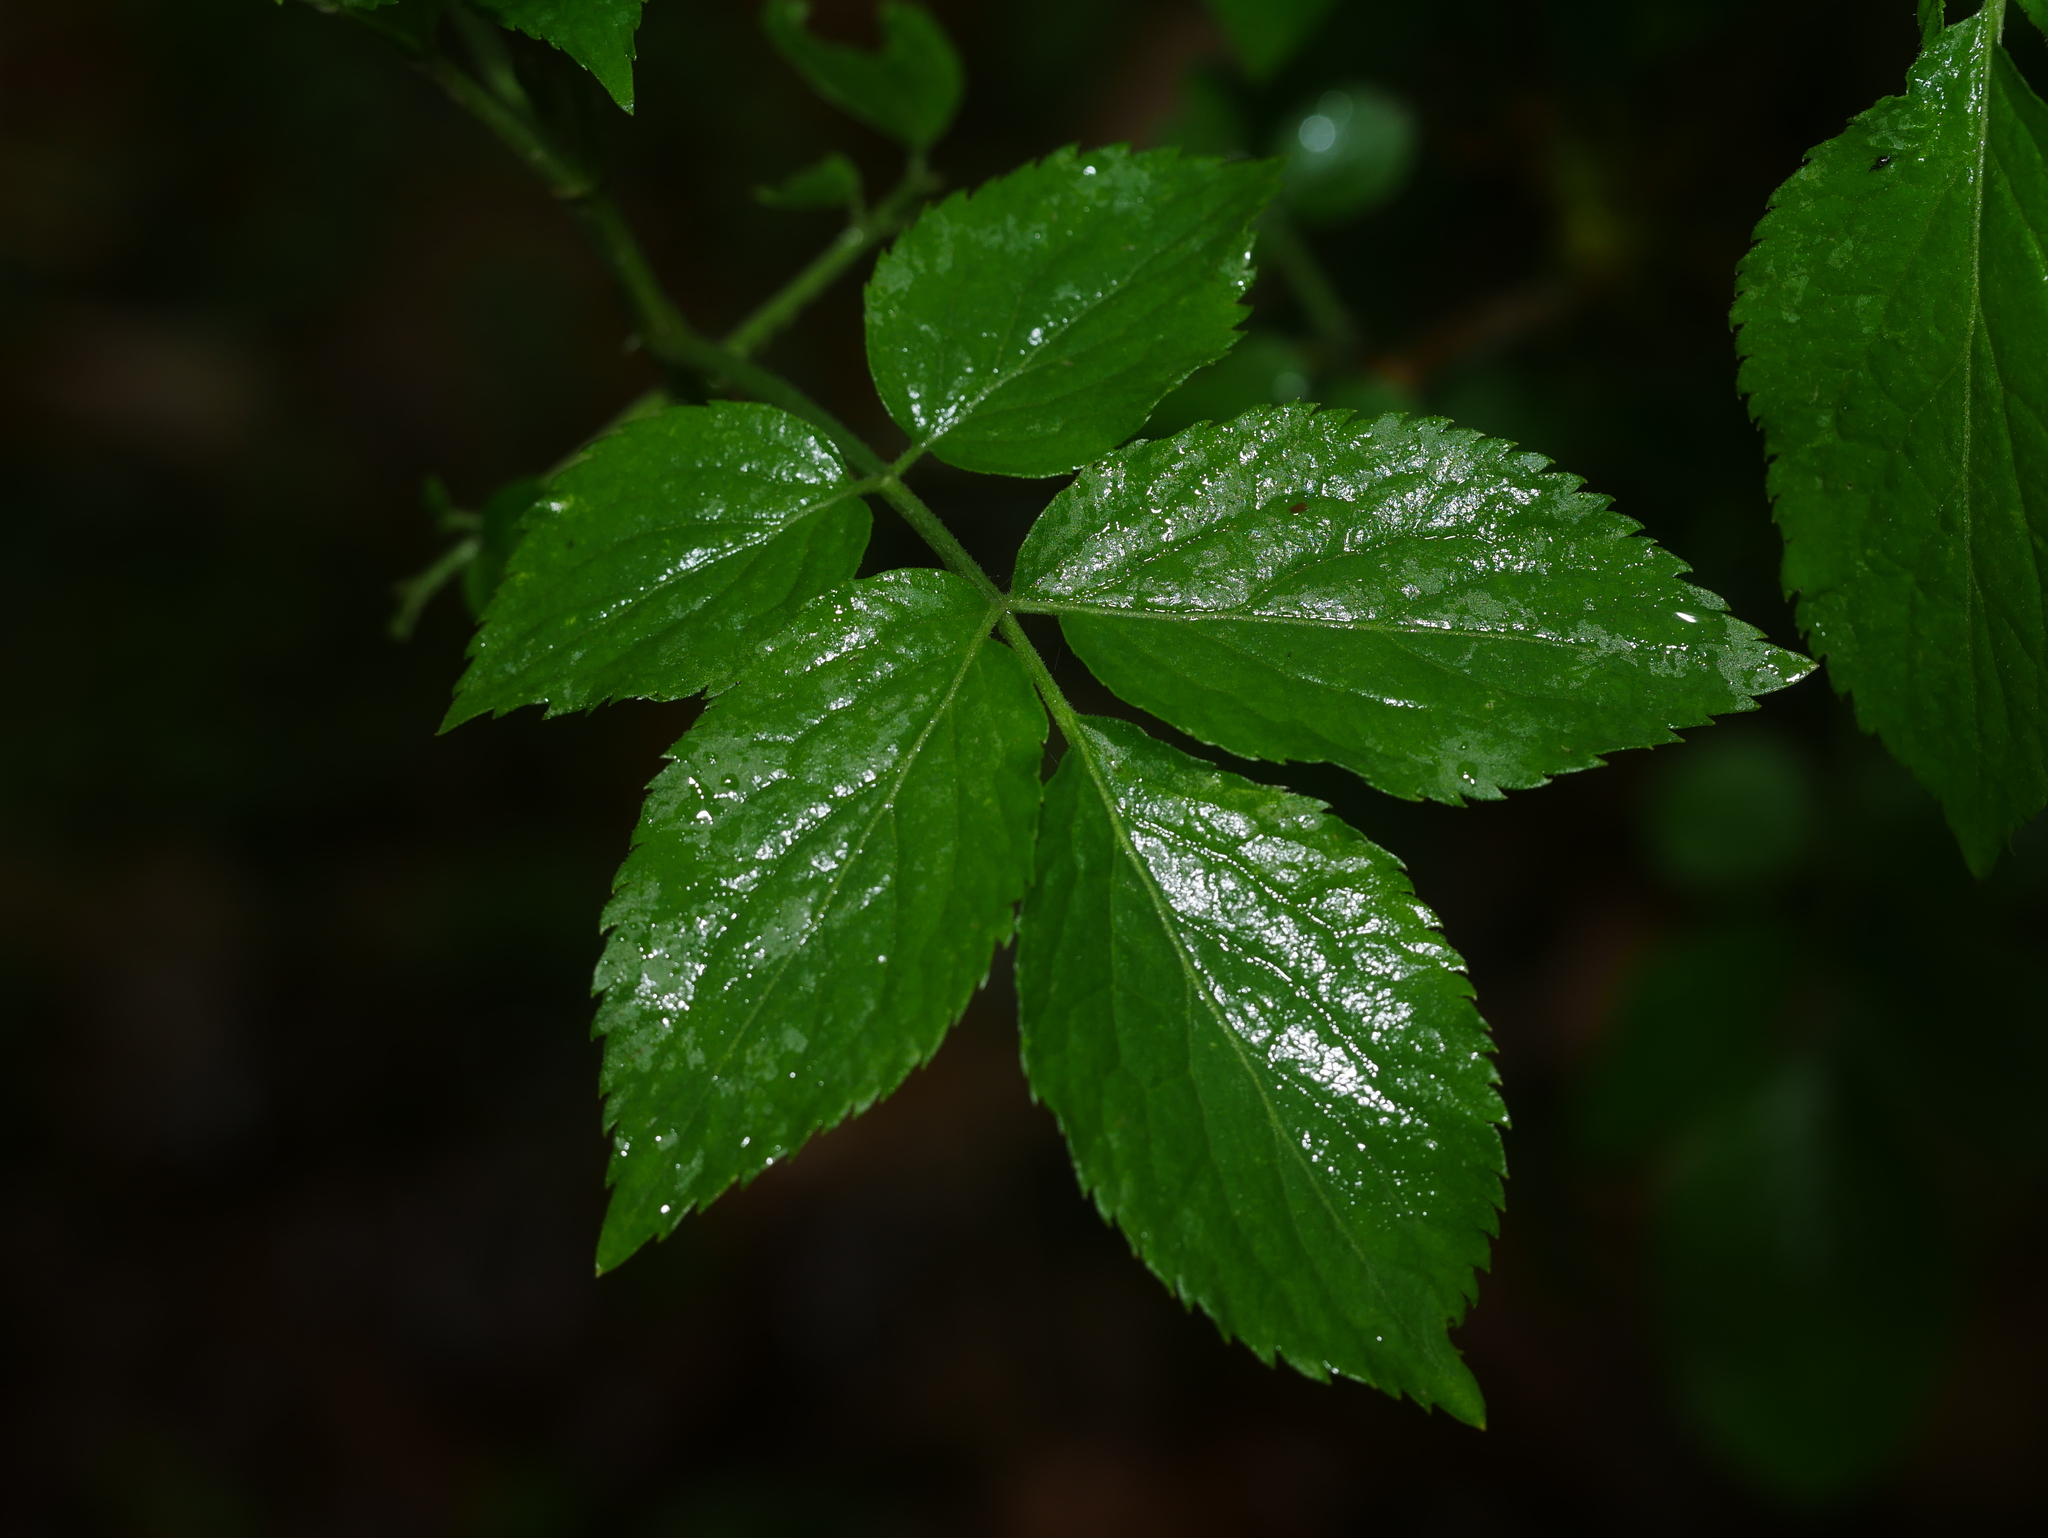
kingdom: Plantae
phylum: Tracheophyta
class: Magnoliopsida
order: Dipsacales
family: Viburnaceae
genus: Sambucus
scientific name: Sambucus nigra
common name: Elder
